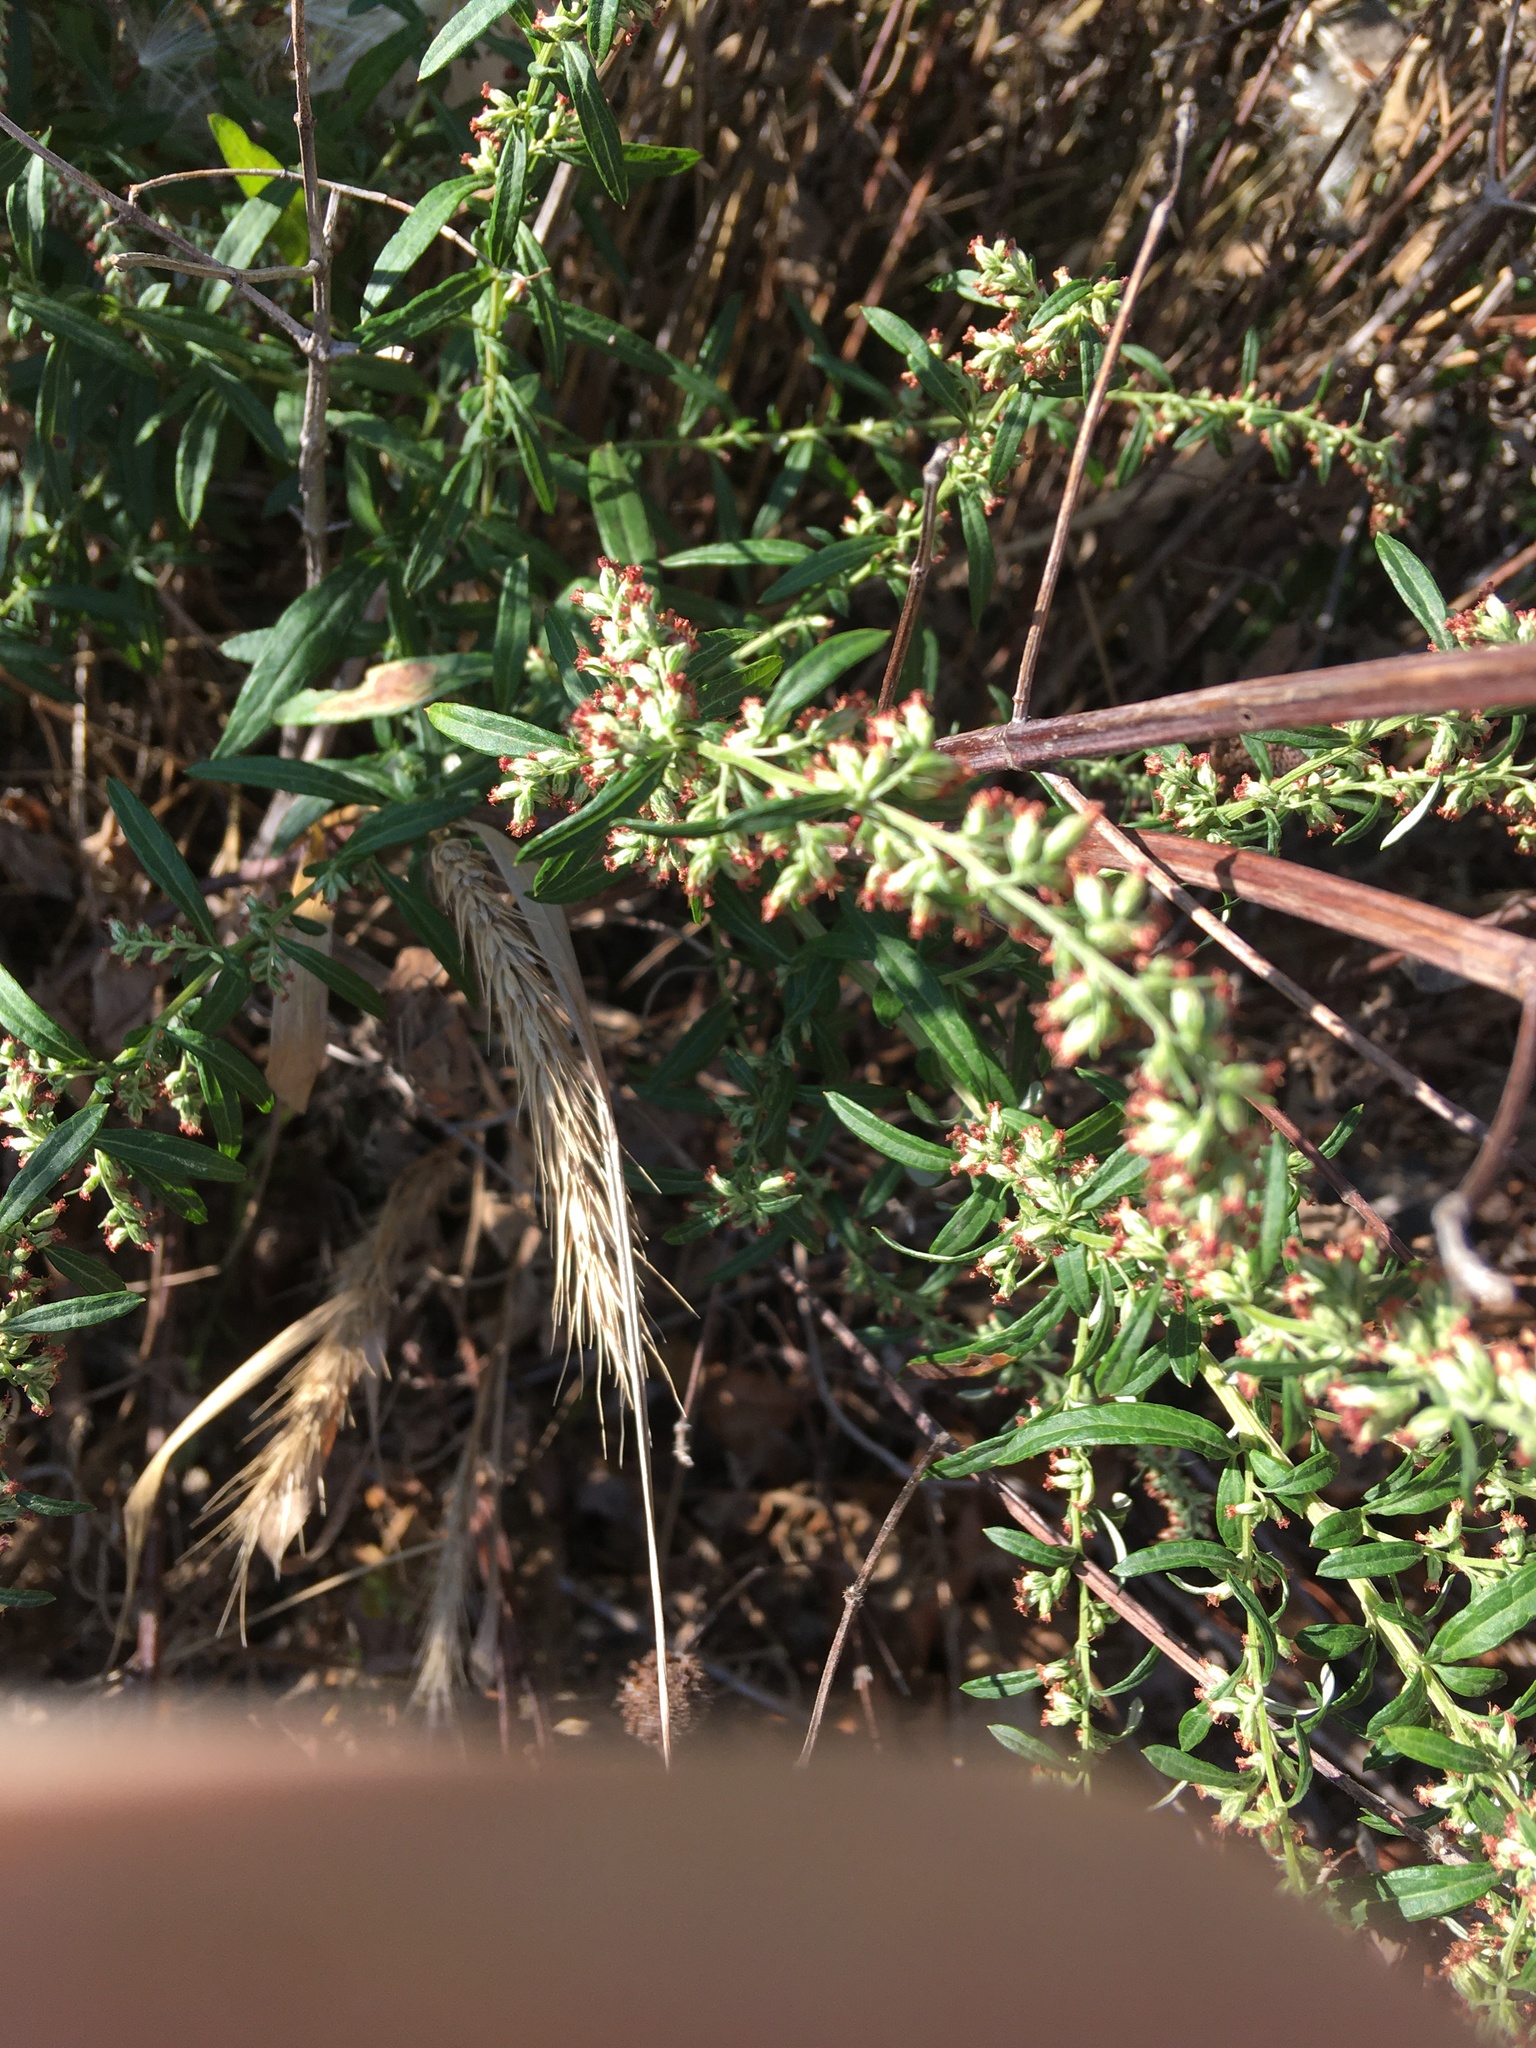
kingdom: Plantae
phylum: Tracheophyta
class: Magnoliopsida
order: Asterales
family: Asteraceae
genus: Artemisia
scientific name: Artemisia vulgaris
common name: Mugwort
